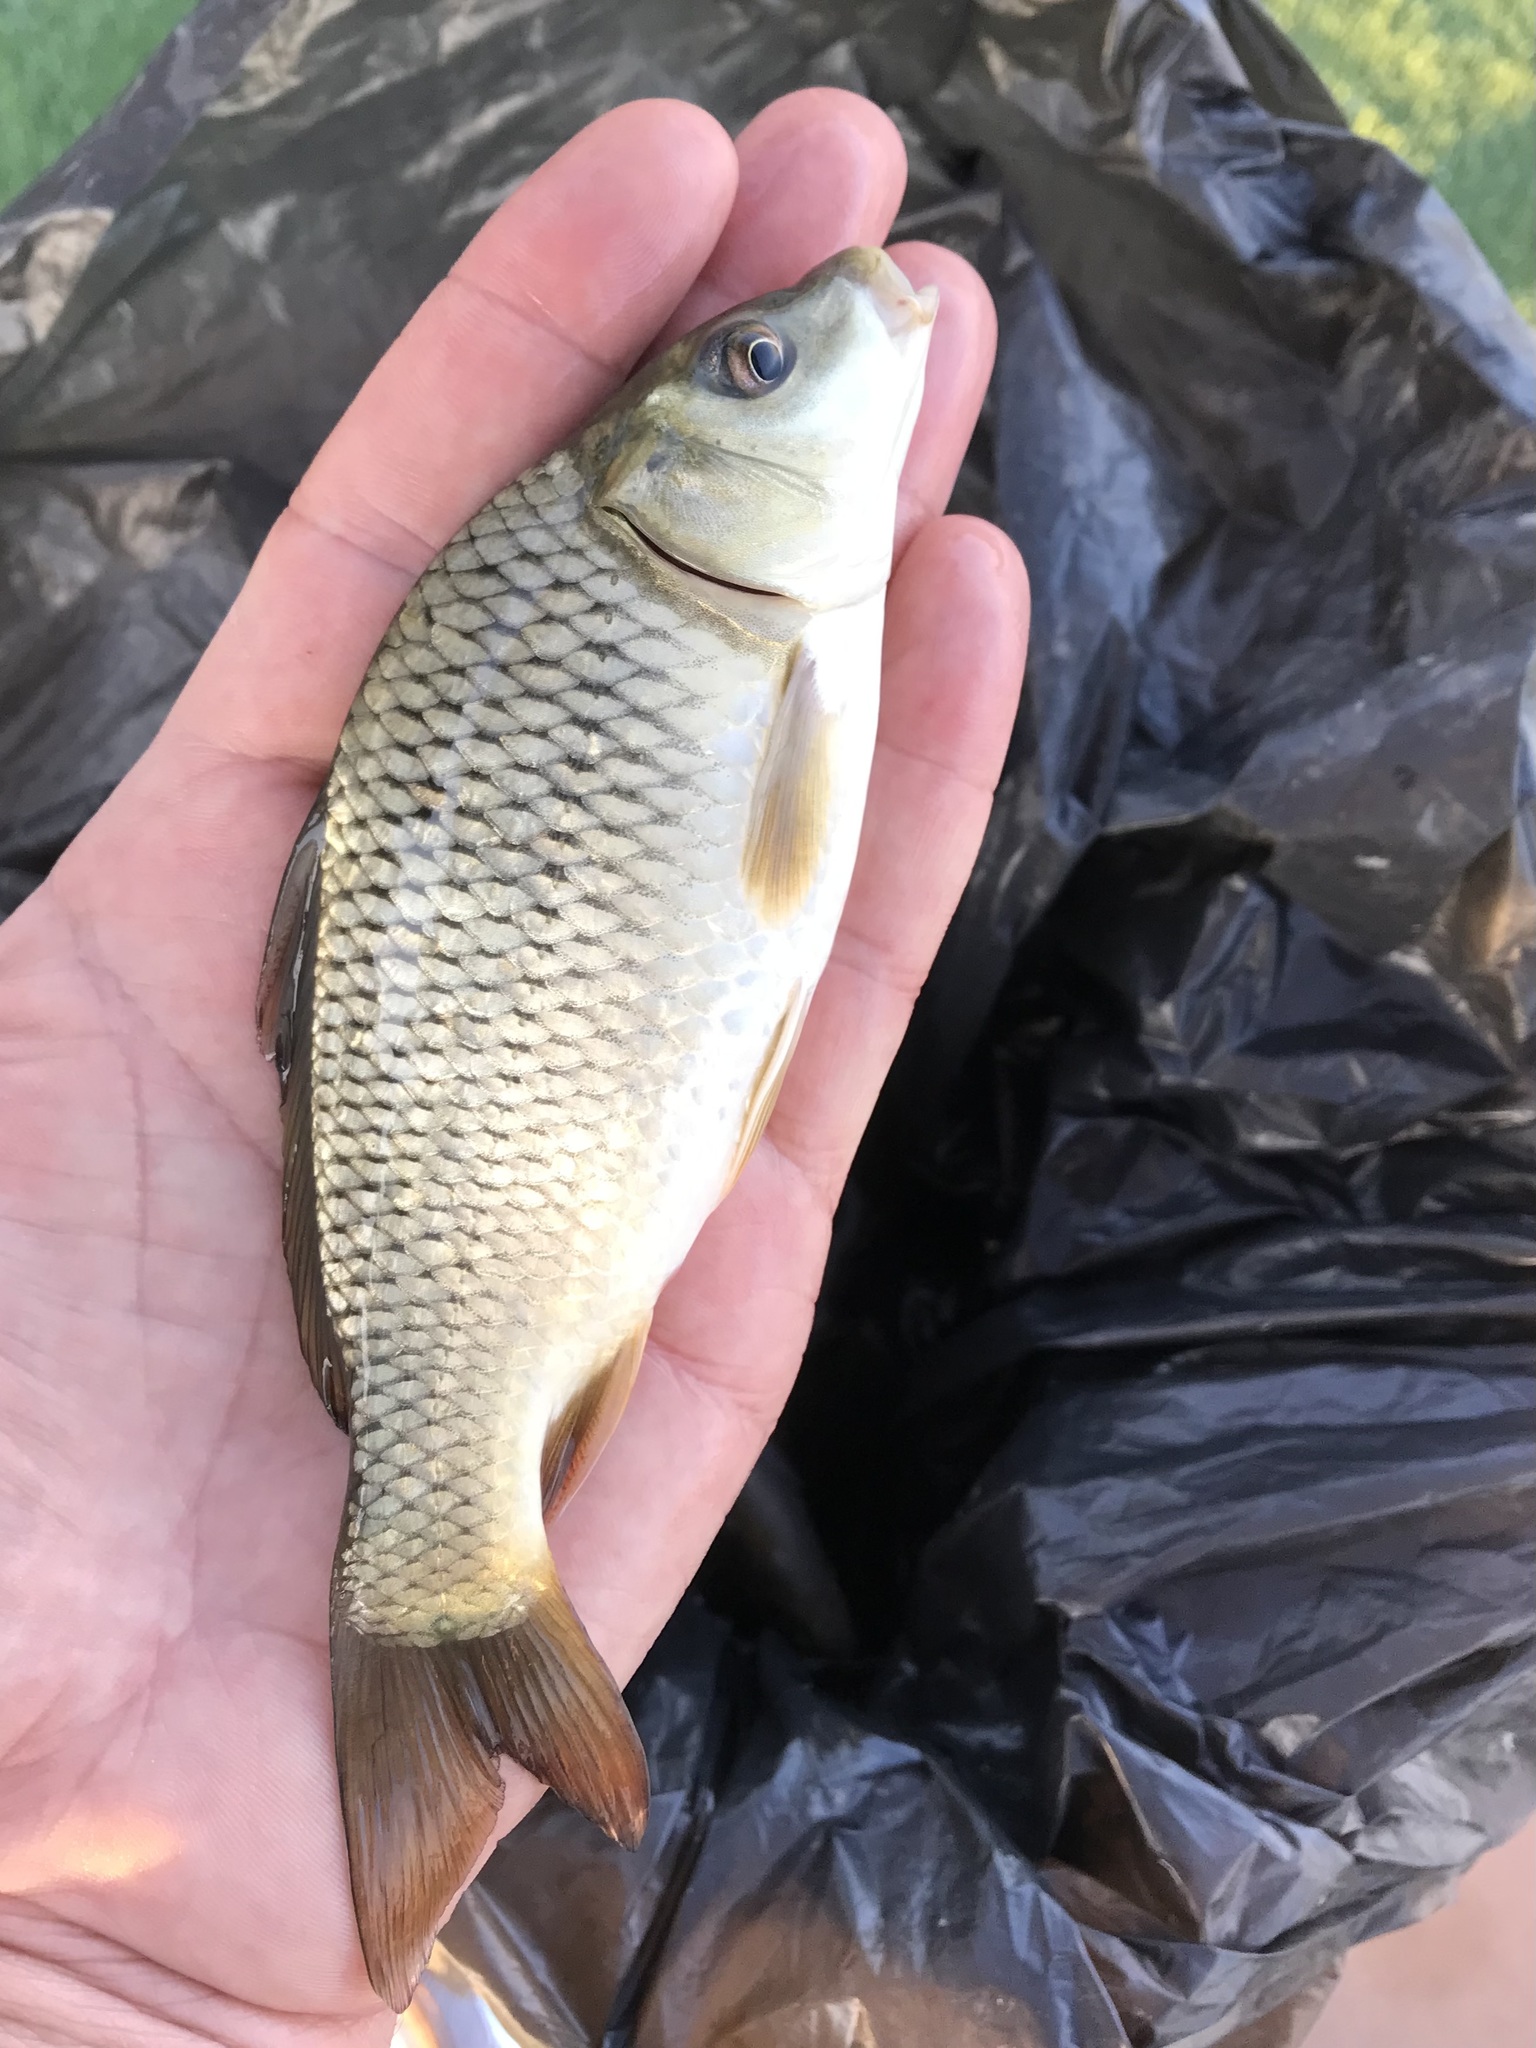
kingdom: Animalia
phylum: Chordata
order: Cypriniformes
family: Cyprinidae
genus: Cyprinus
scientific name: Cyprinus carpio
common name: Common carp
